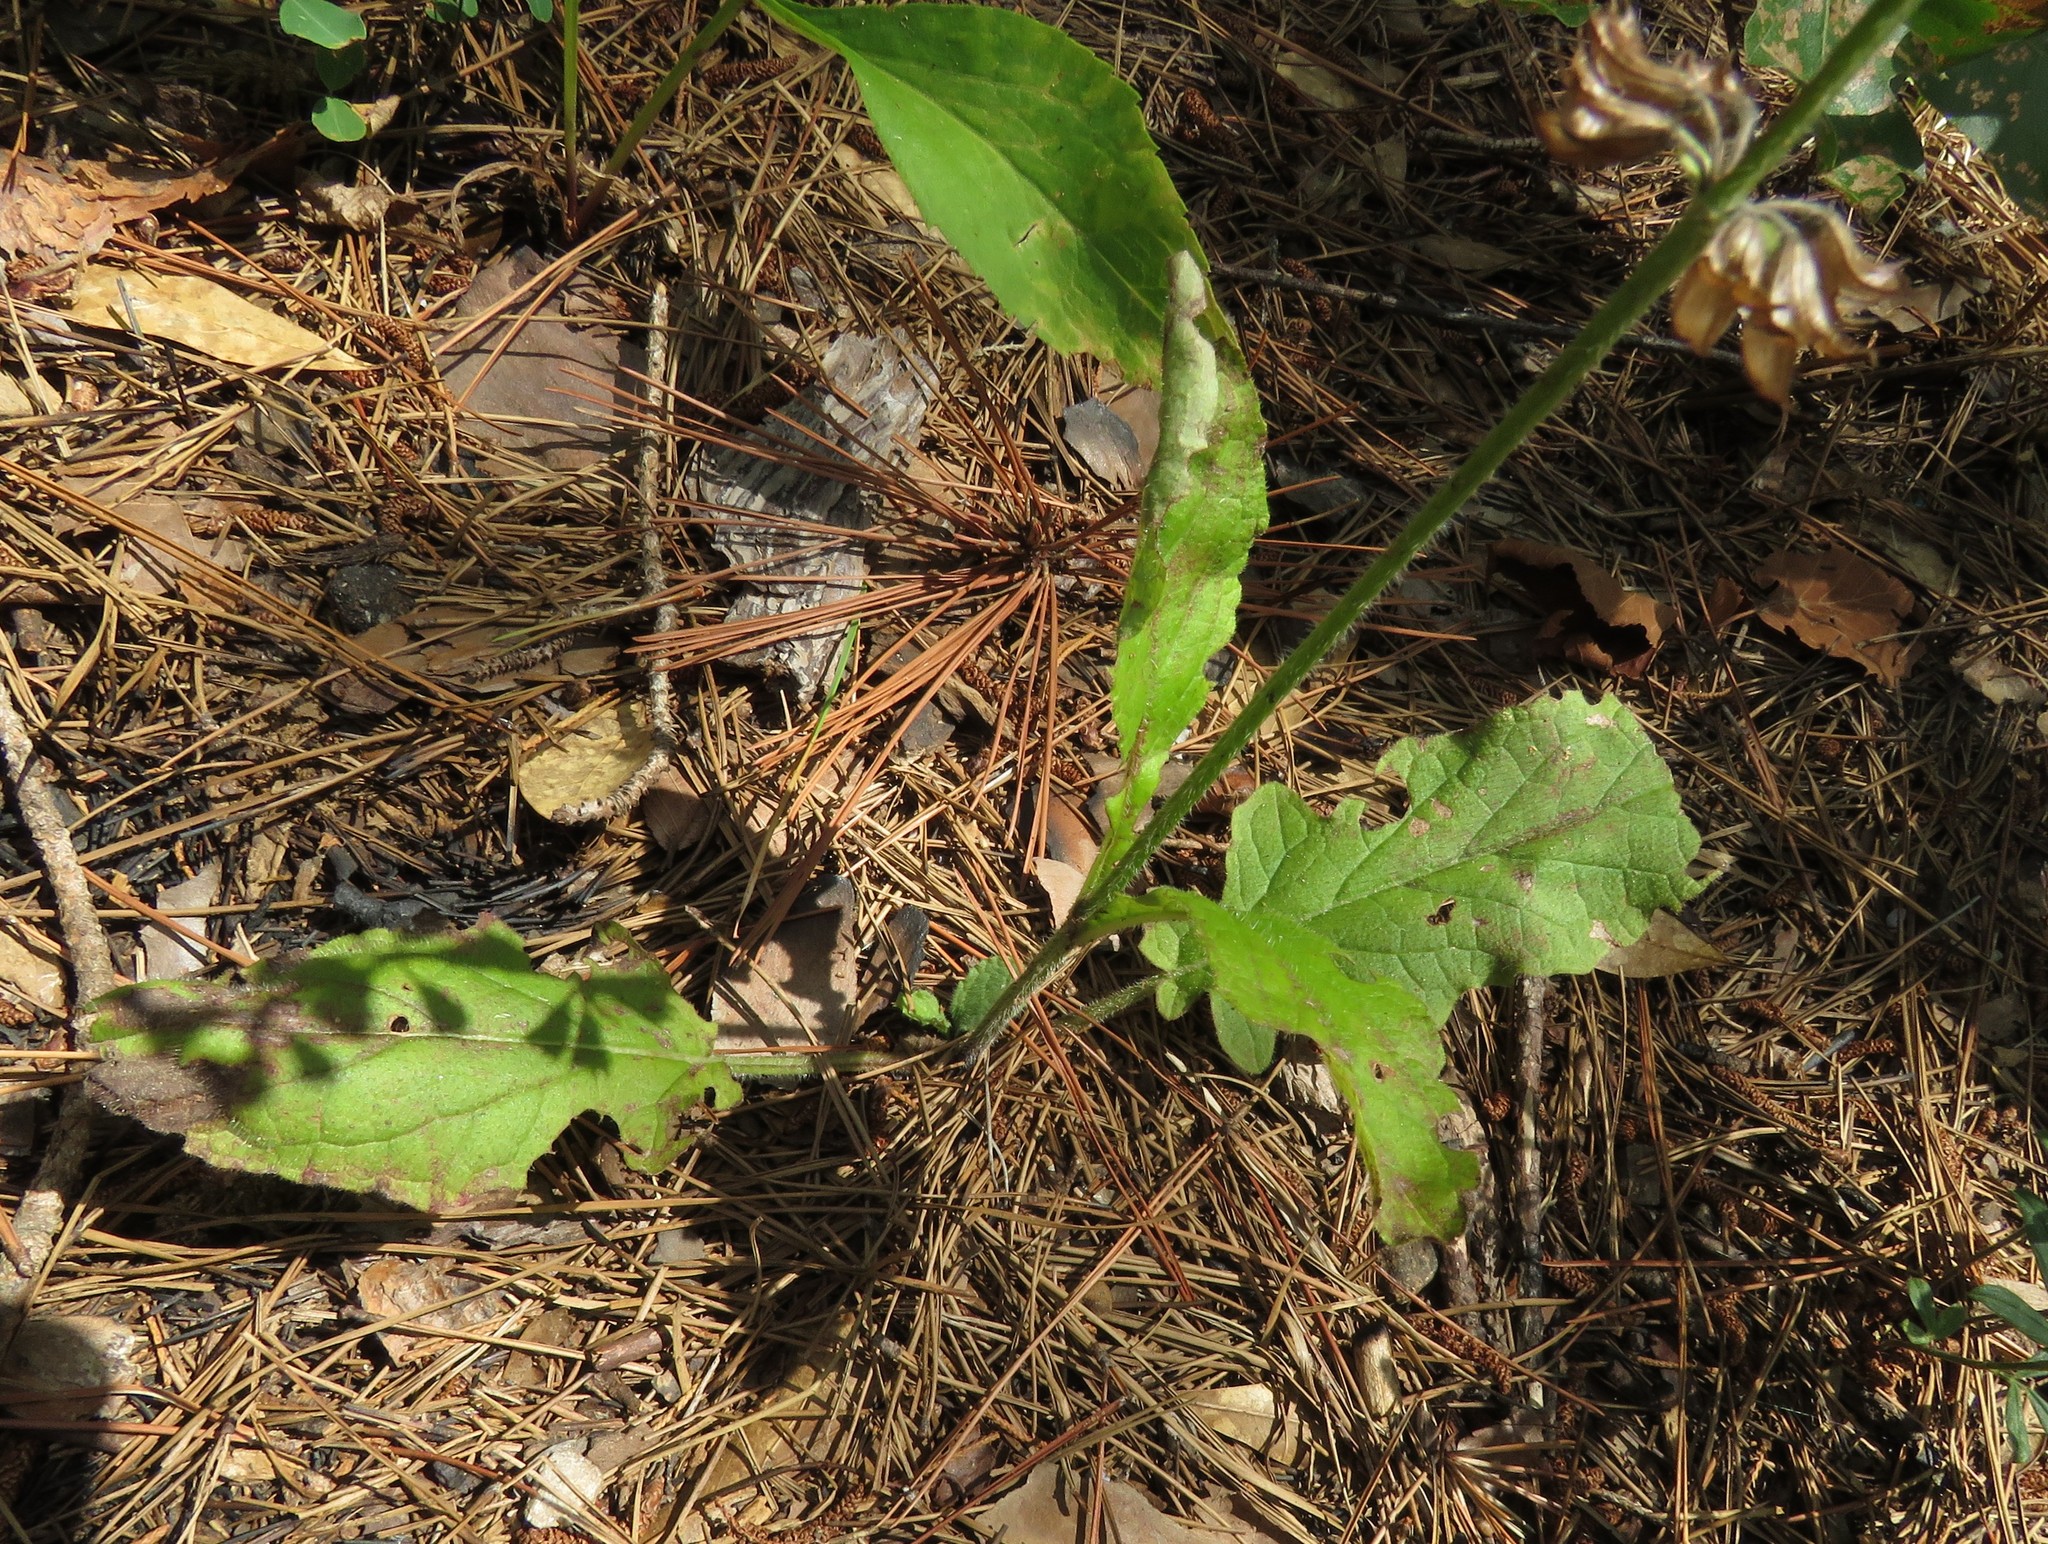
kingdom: Plantae
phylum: Tracheophyta
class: Magnoliopsida
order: Lamiales
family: Lamiaceae
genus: Salvia
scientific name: Salvia lyrata
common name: Cancerweed
